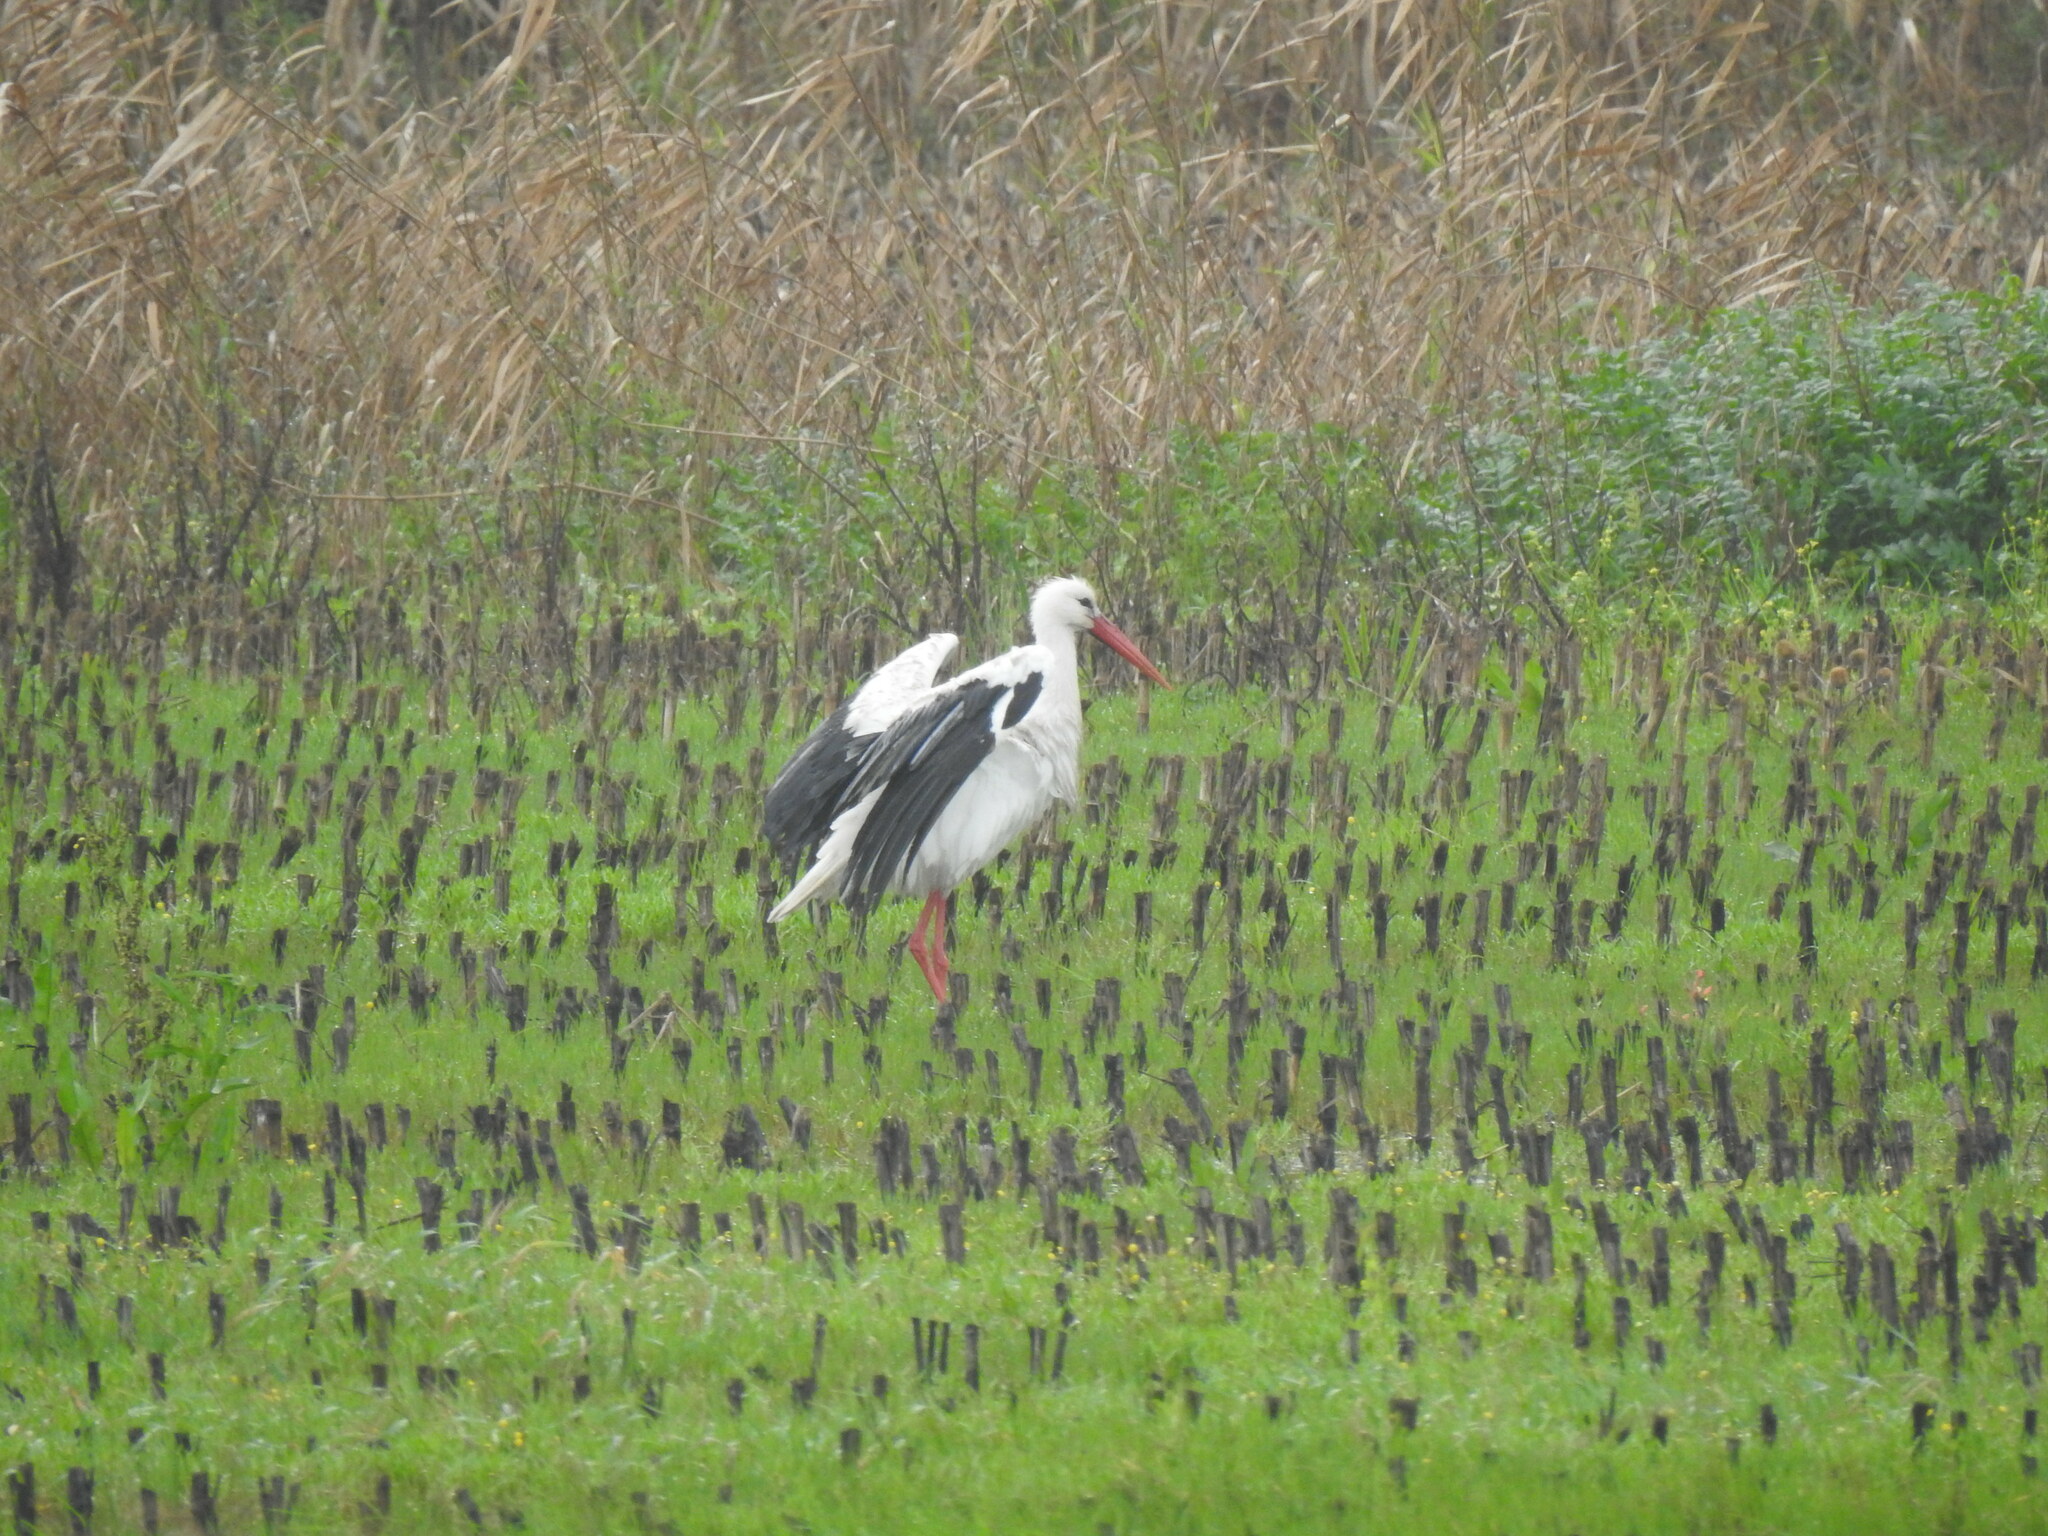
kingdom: Animalia
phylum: Chordata
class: Aves
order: Ciconiiformes
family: Ciconiidae
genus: Ciconia
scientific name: Ciconia ciconia
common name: White stork
